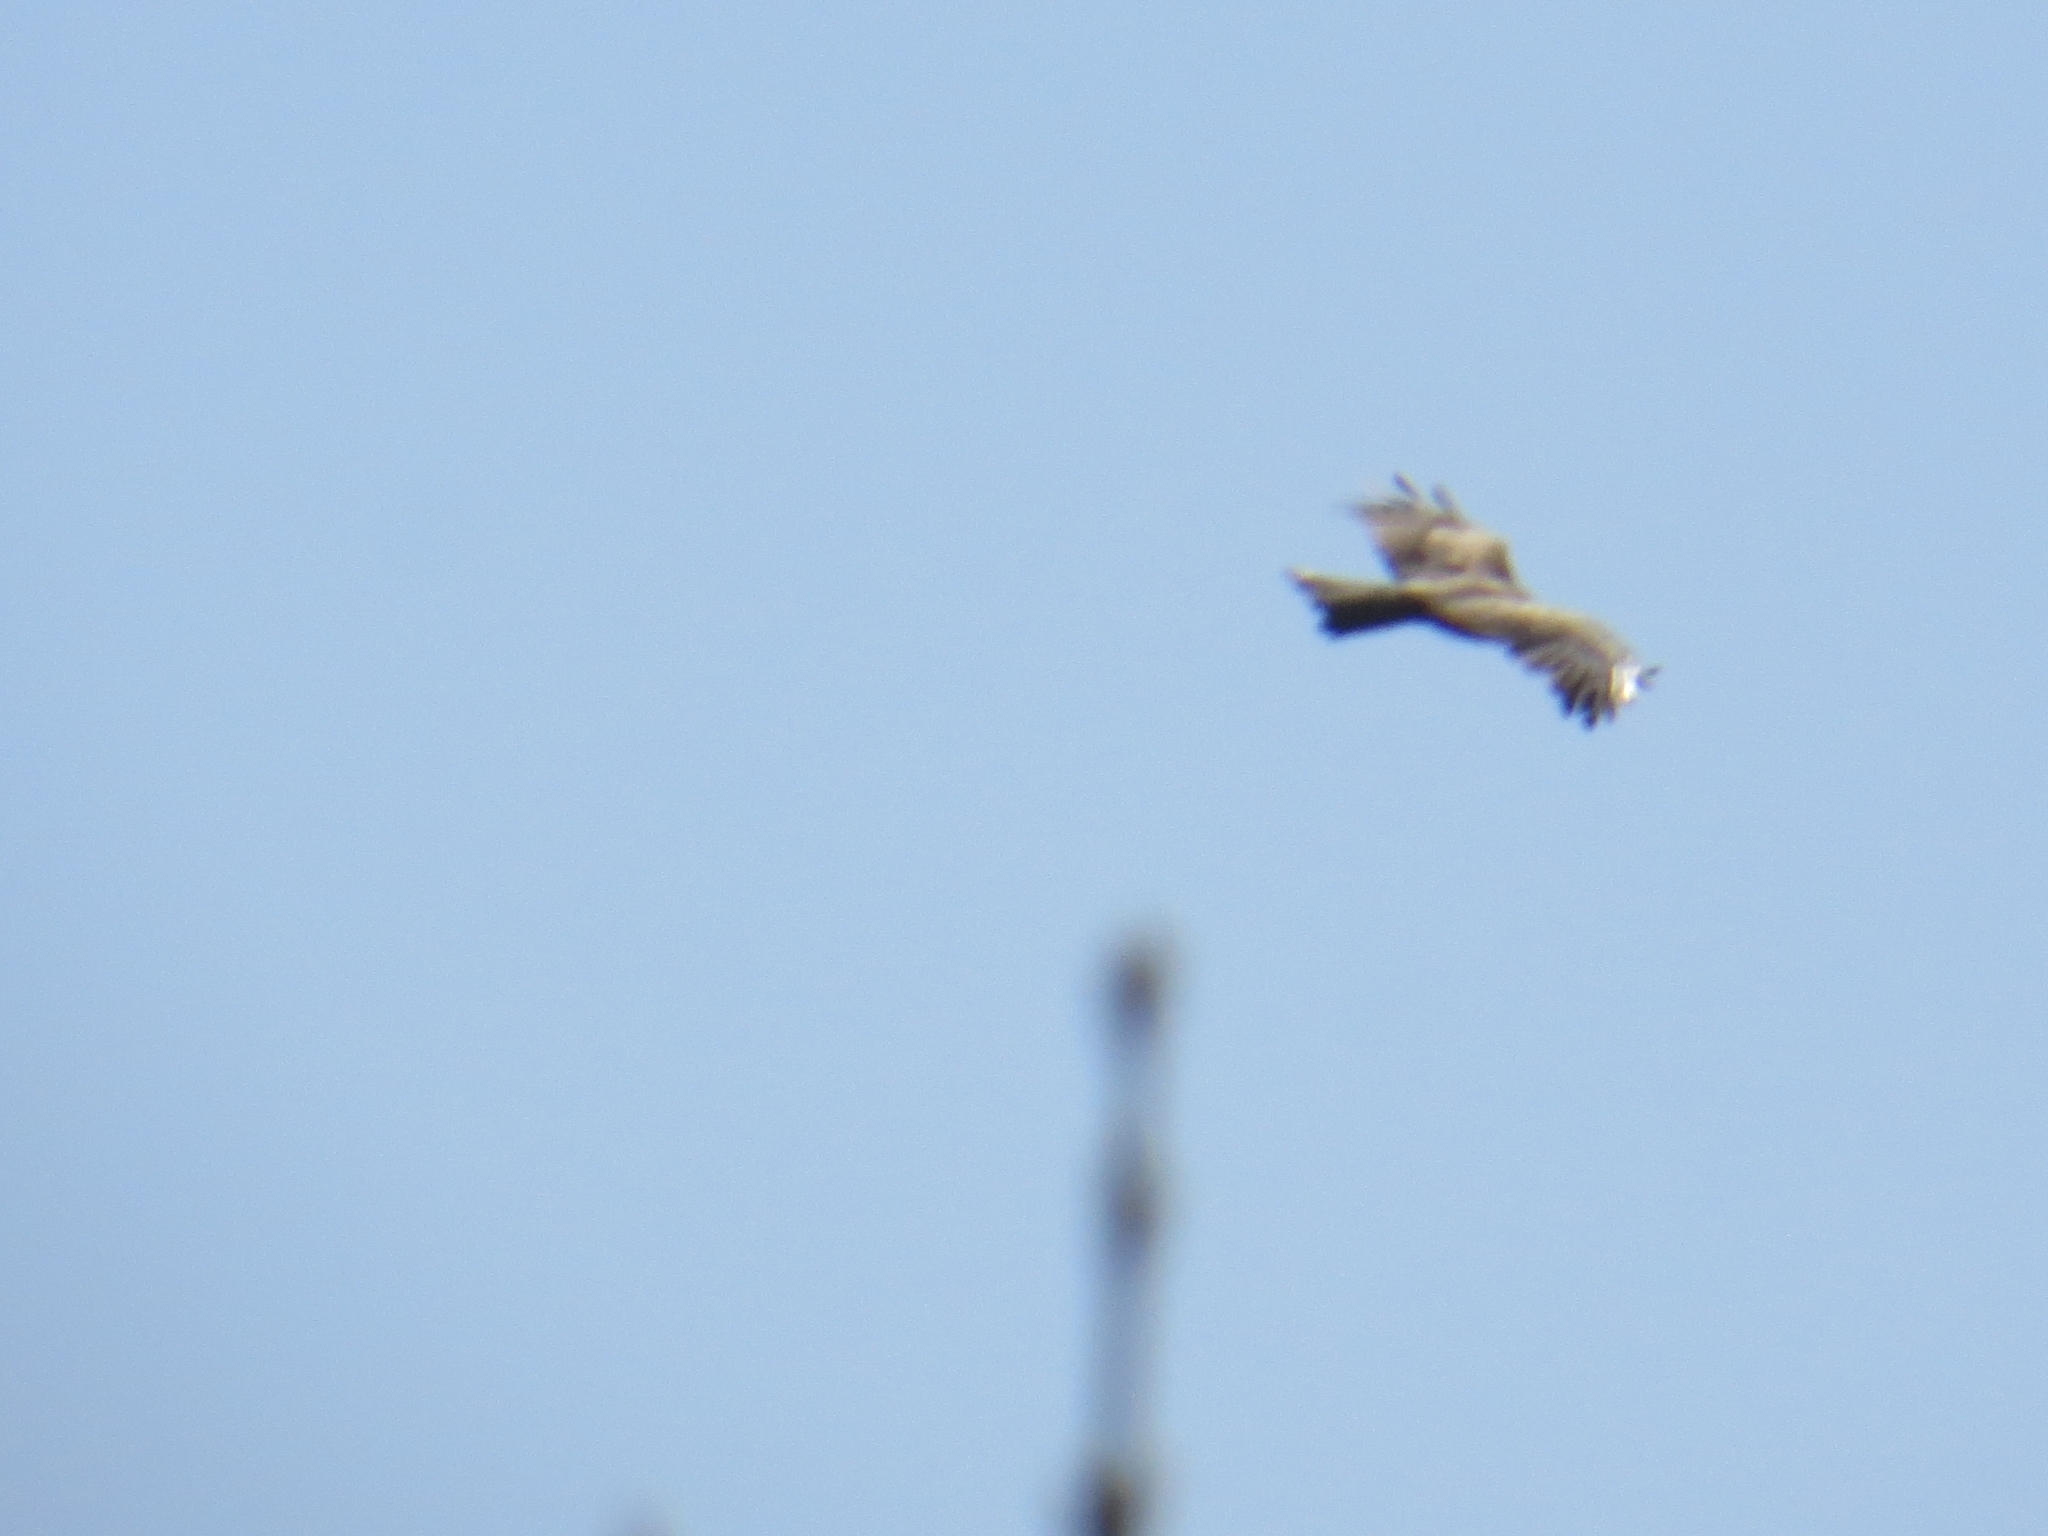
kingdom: Animalia
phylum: Chordata
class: Aves
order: Accipitriformes
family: Accipitridae
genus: Milvus
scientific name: Milvus migrans
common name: Black kite
